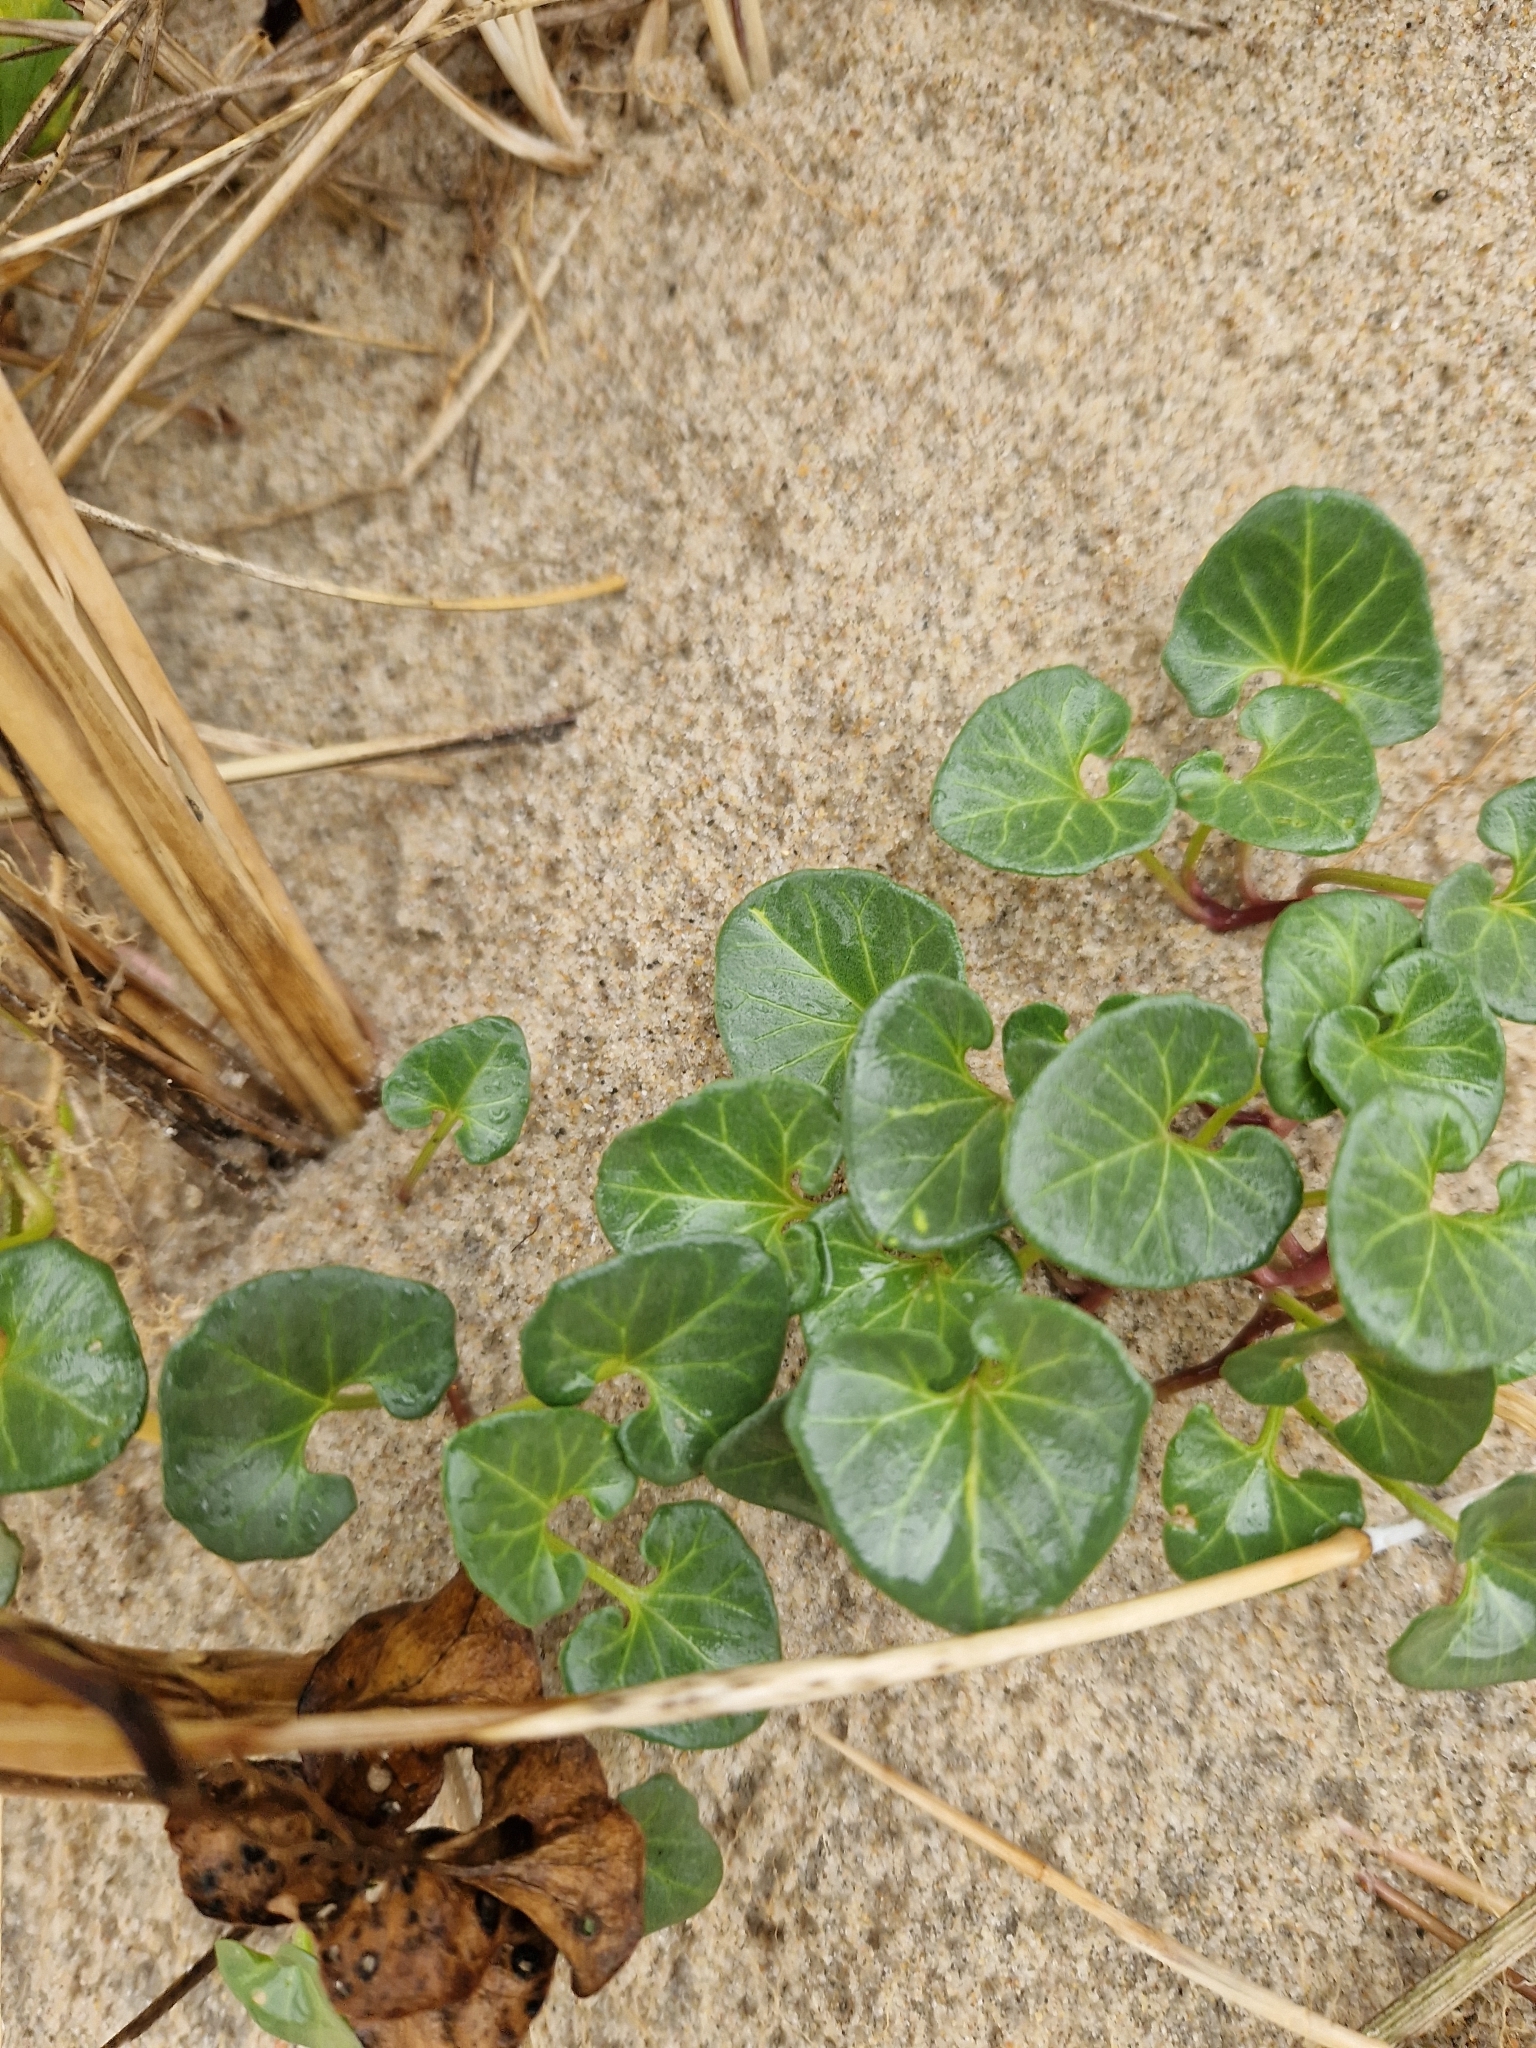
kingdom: Plantae
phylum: Tracheophyta
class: Magnoliopsida
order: Solanales
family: Convolvulaceae
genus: Calystegia
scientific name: Calystegia soldanella
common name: Sea bindweed
